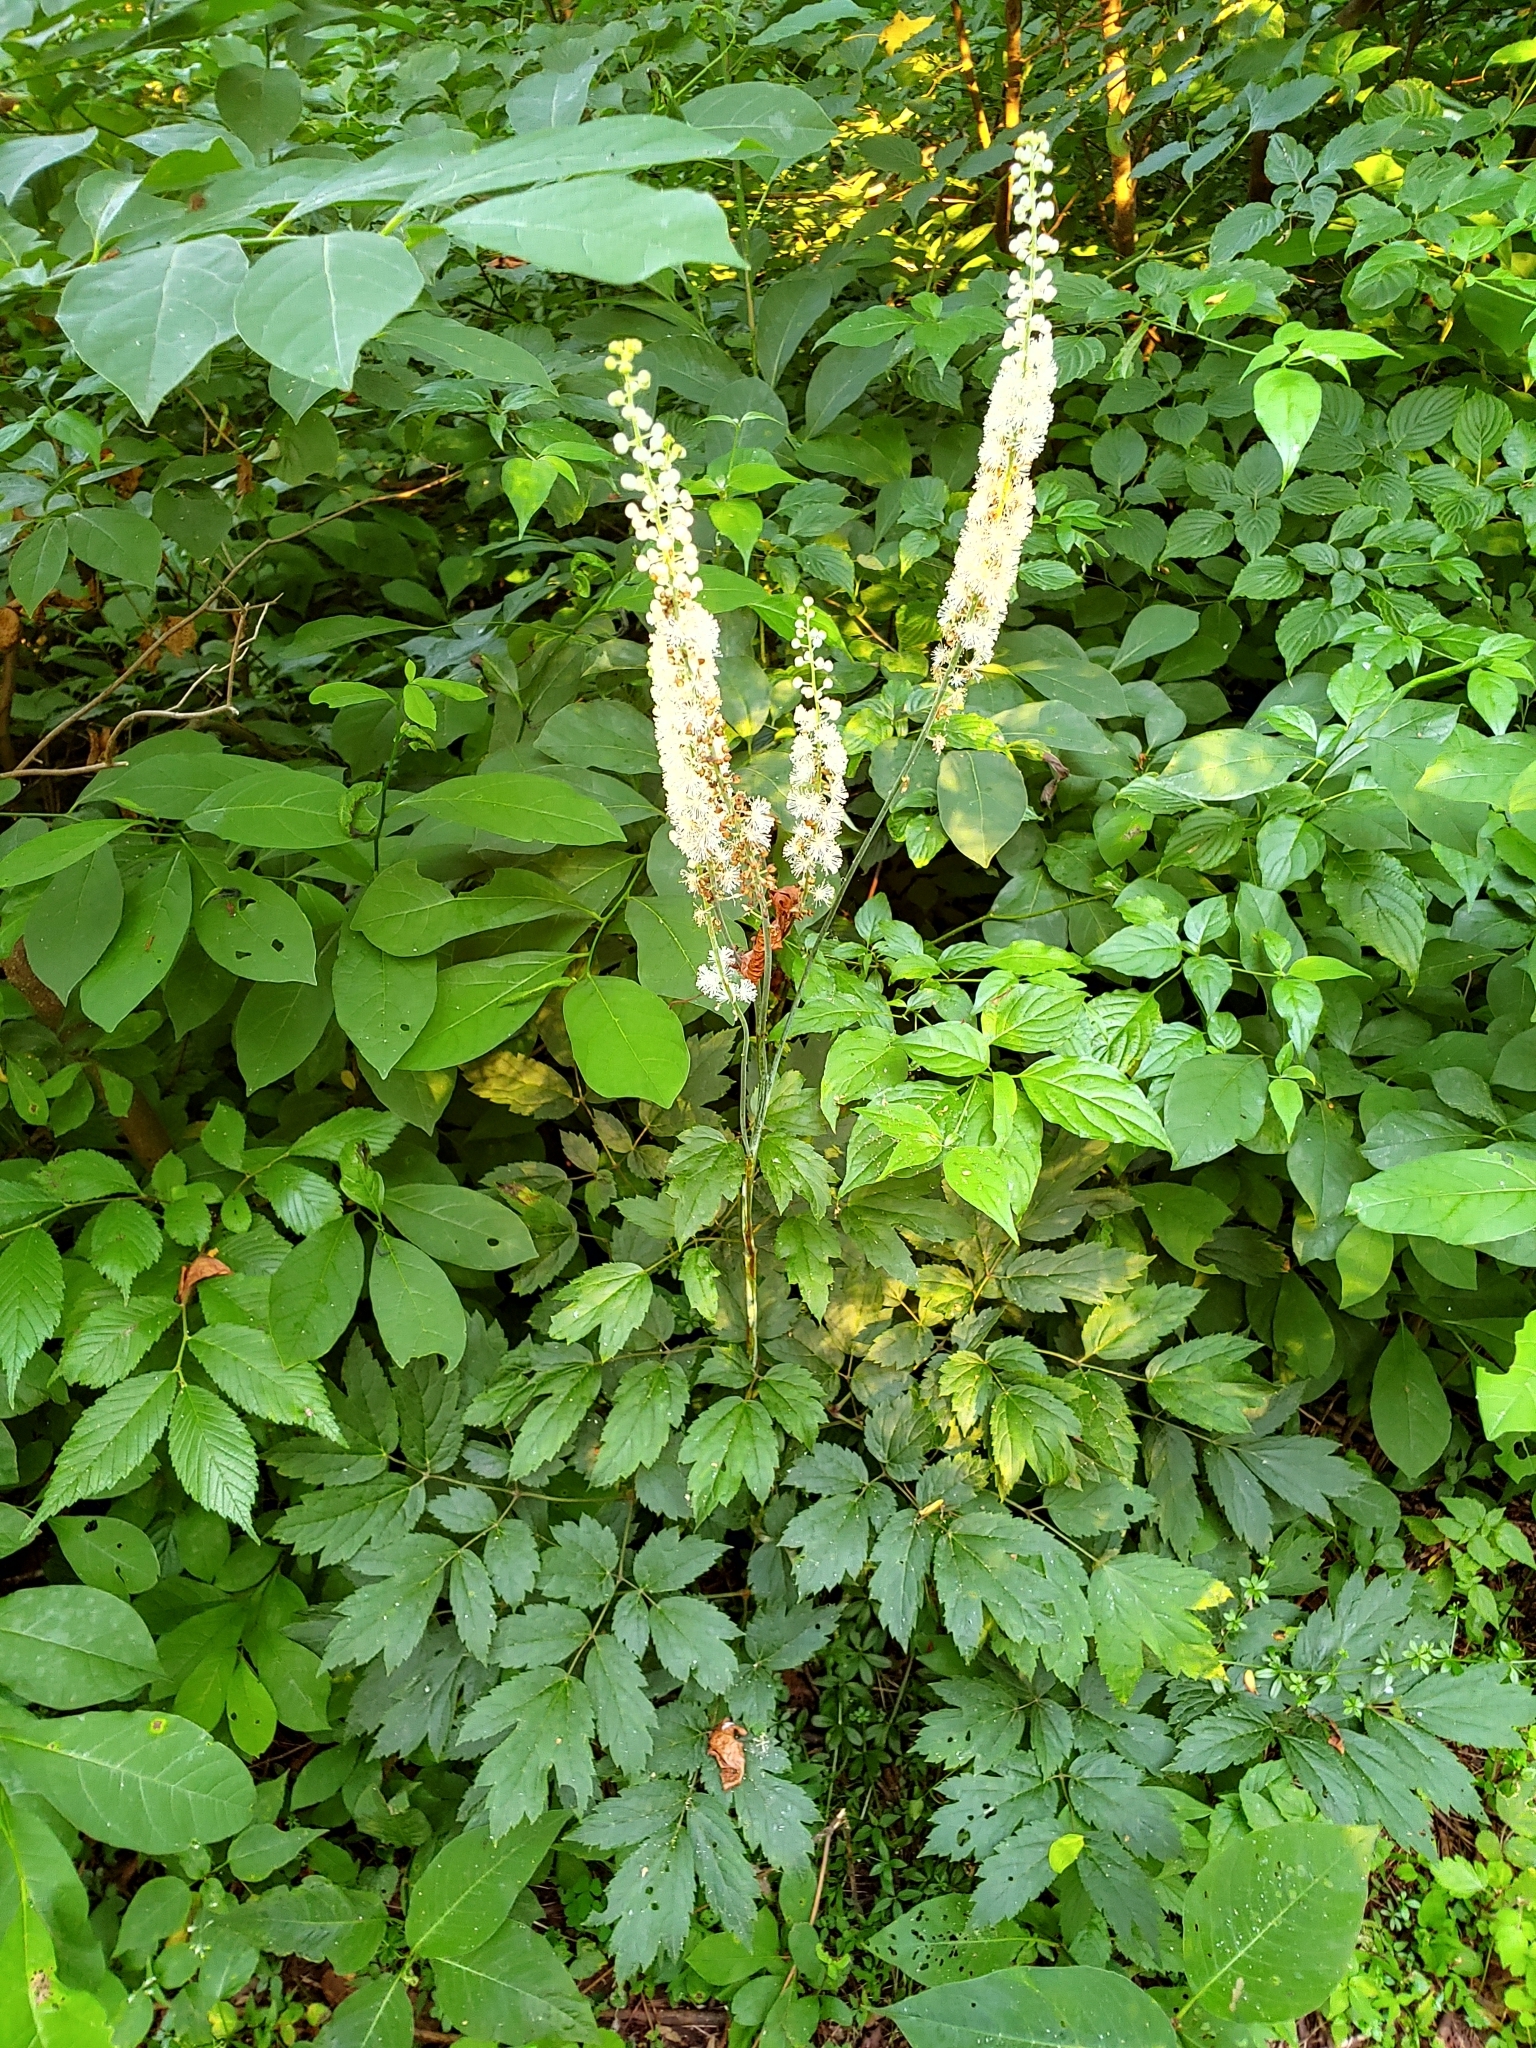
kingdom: Plantae
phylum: Tracheophyta
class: Magnoliopsida
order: Ranunculales
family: Ranunculaceae
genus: Actaea
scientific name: Actaea racemosa
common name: Black cohosh
